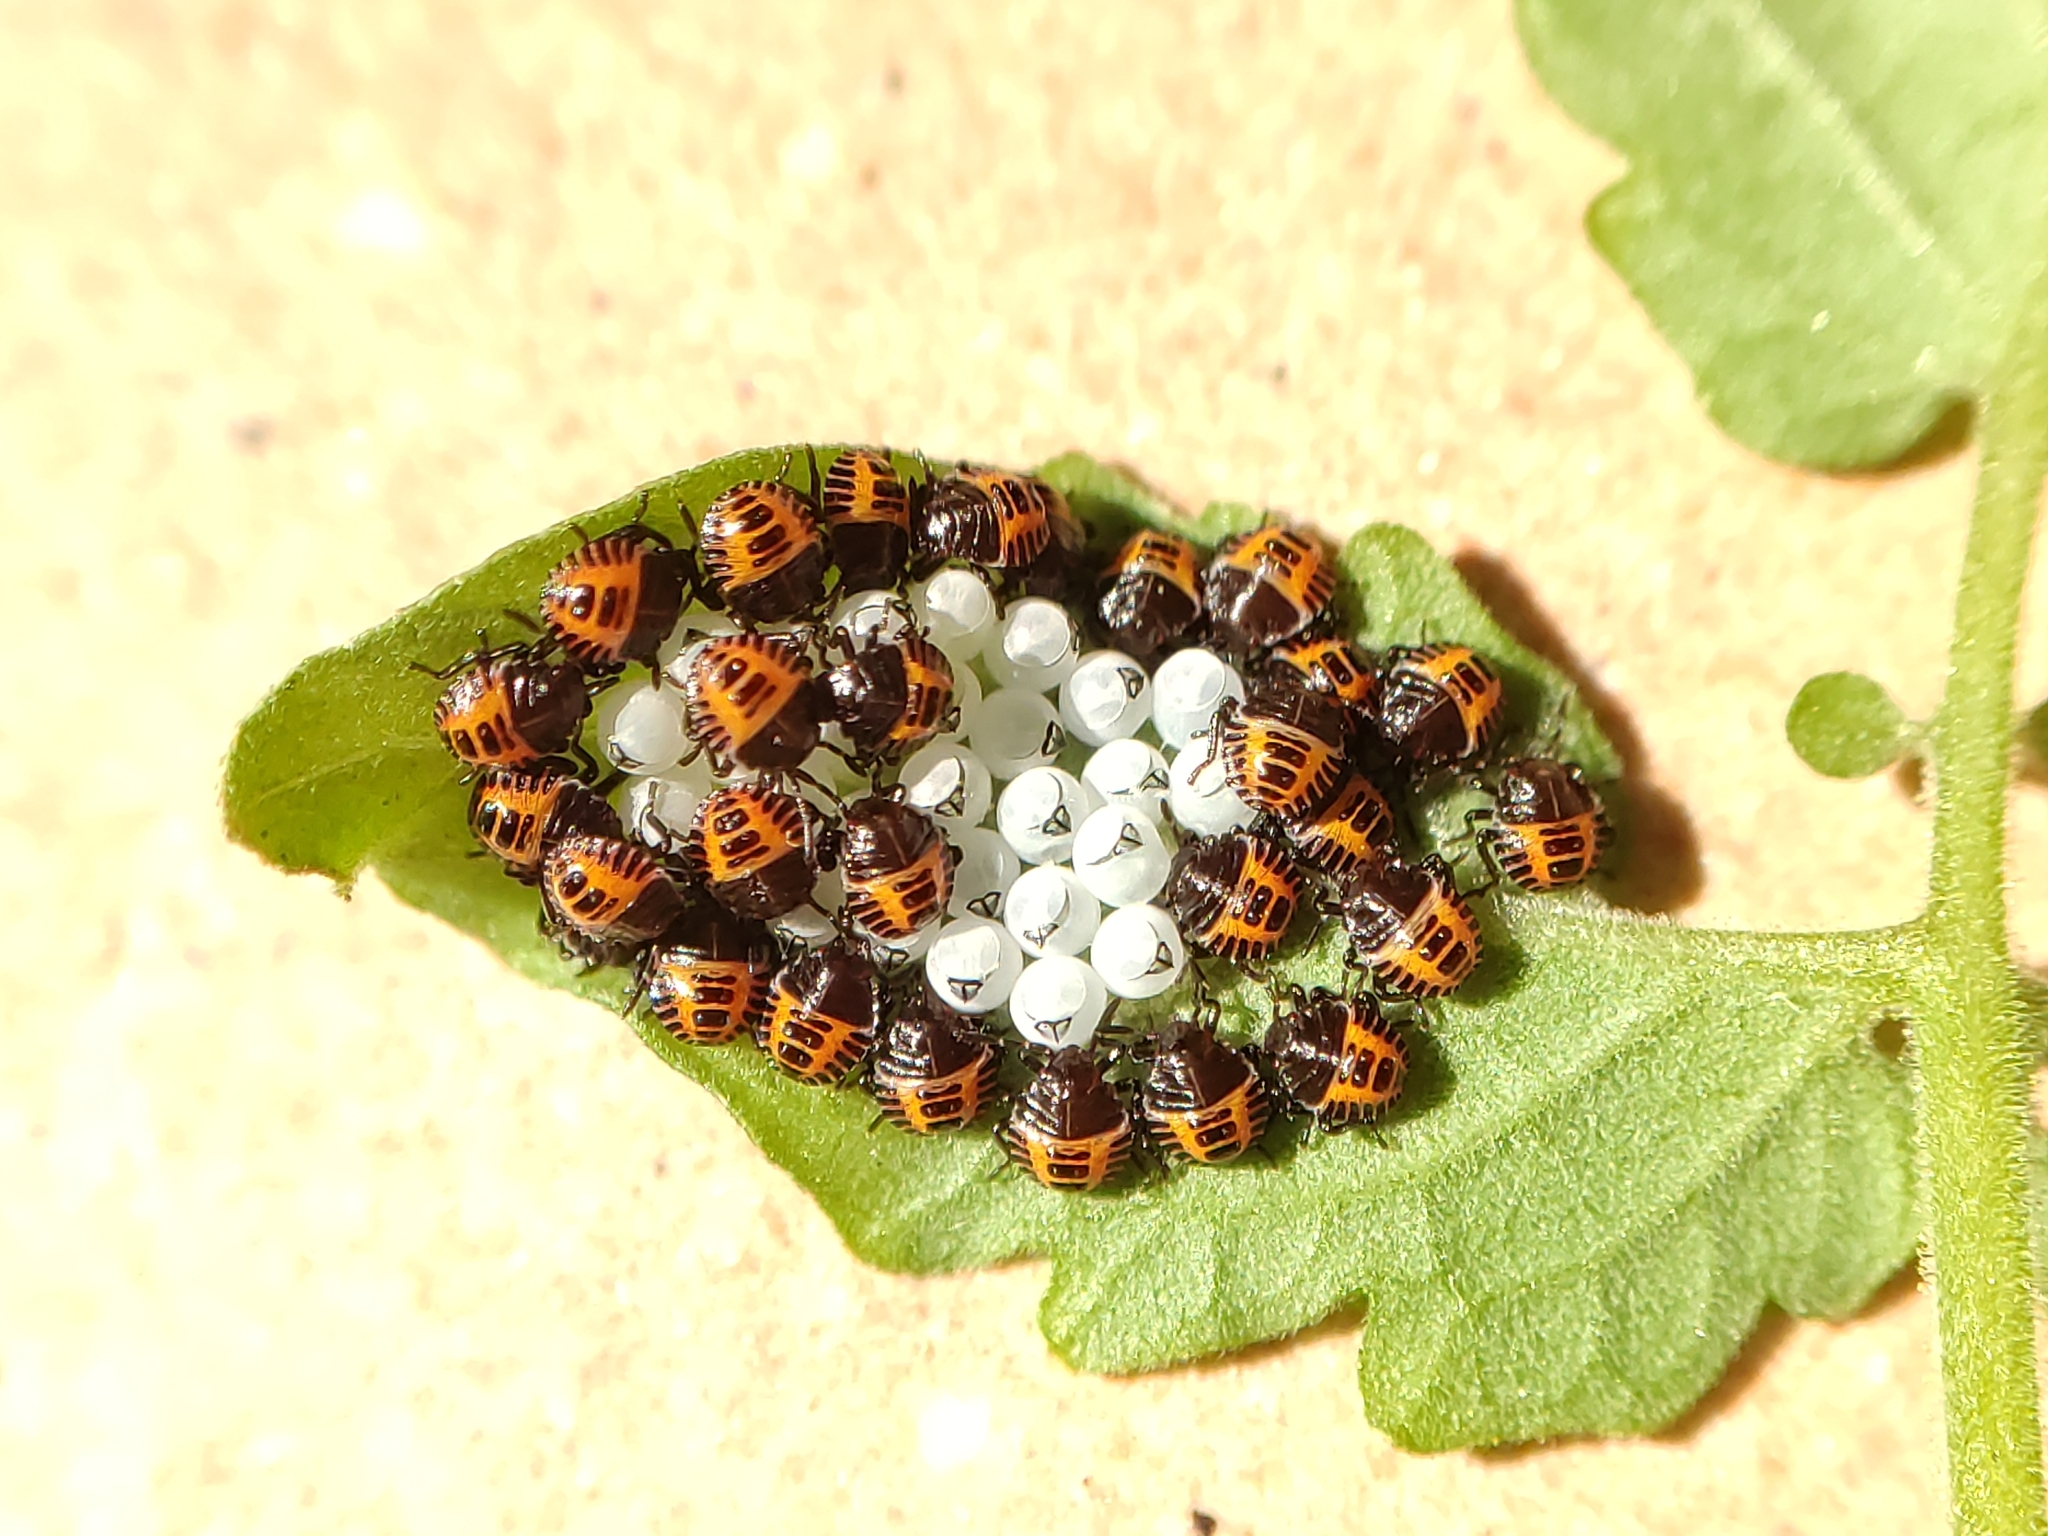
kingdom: Animalia
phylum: Arthropoda
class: Insecta
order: Hemiptera
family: Pentatomidae
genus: Halyomorpha
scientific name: Halyomorpha halys
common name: Brown marmorated stink bug
